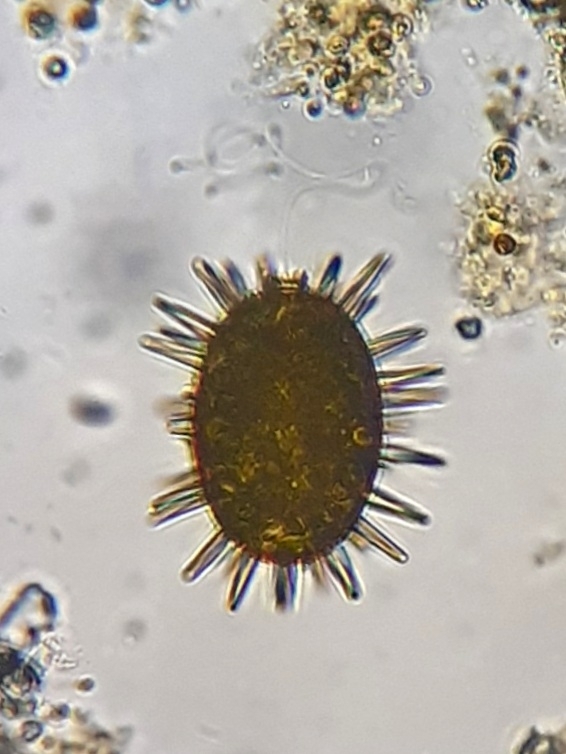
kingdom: Protozoa
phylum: Euglenozoa
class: Euglenoidea
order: Euglenida
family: Euglenaceae
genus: Trachelomonas
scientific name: Trachelomonas megalacantha
